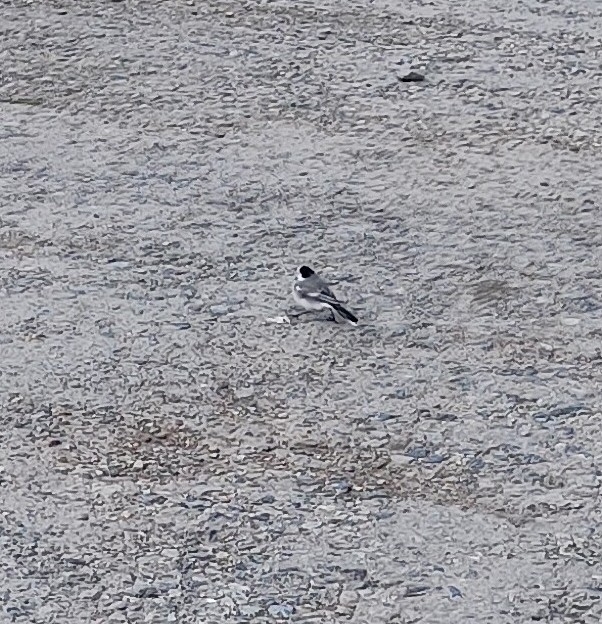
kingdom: Animalia
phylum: Chordata
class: Aves
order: Passeriformes
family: Motacillidae
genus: Motacilla
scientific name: Motacilla alba
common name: White wagtail
